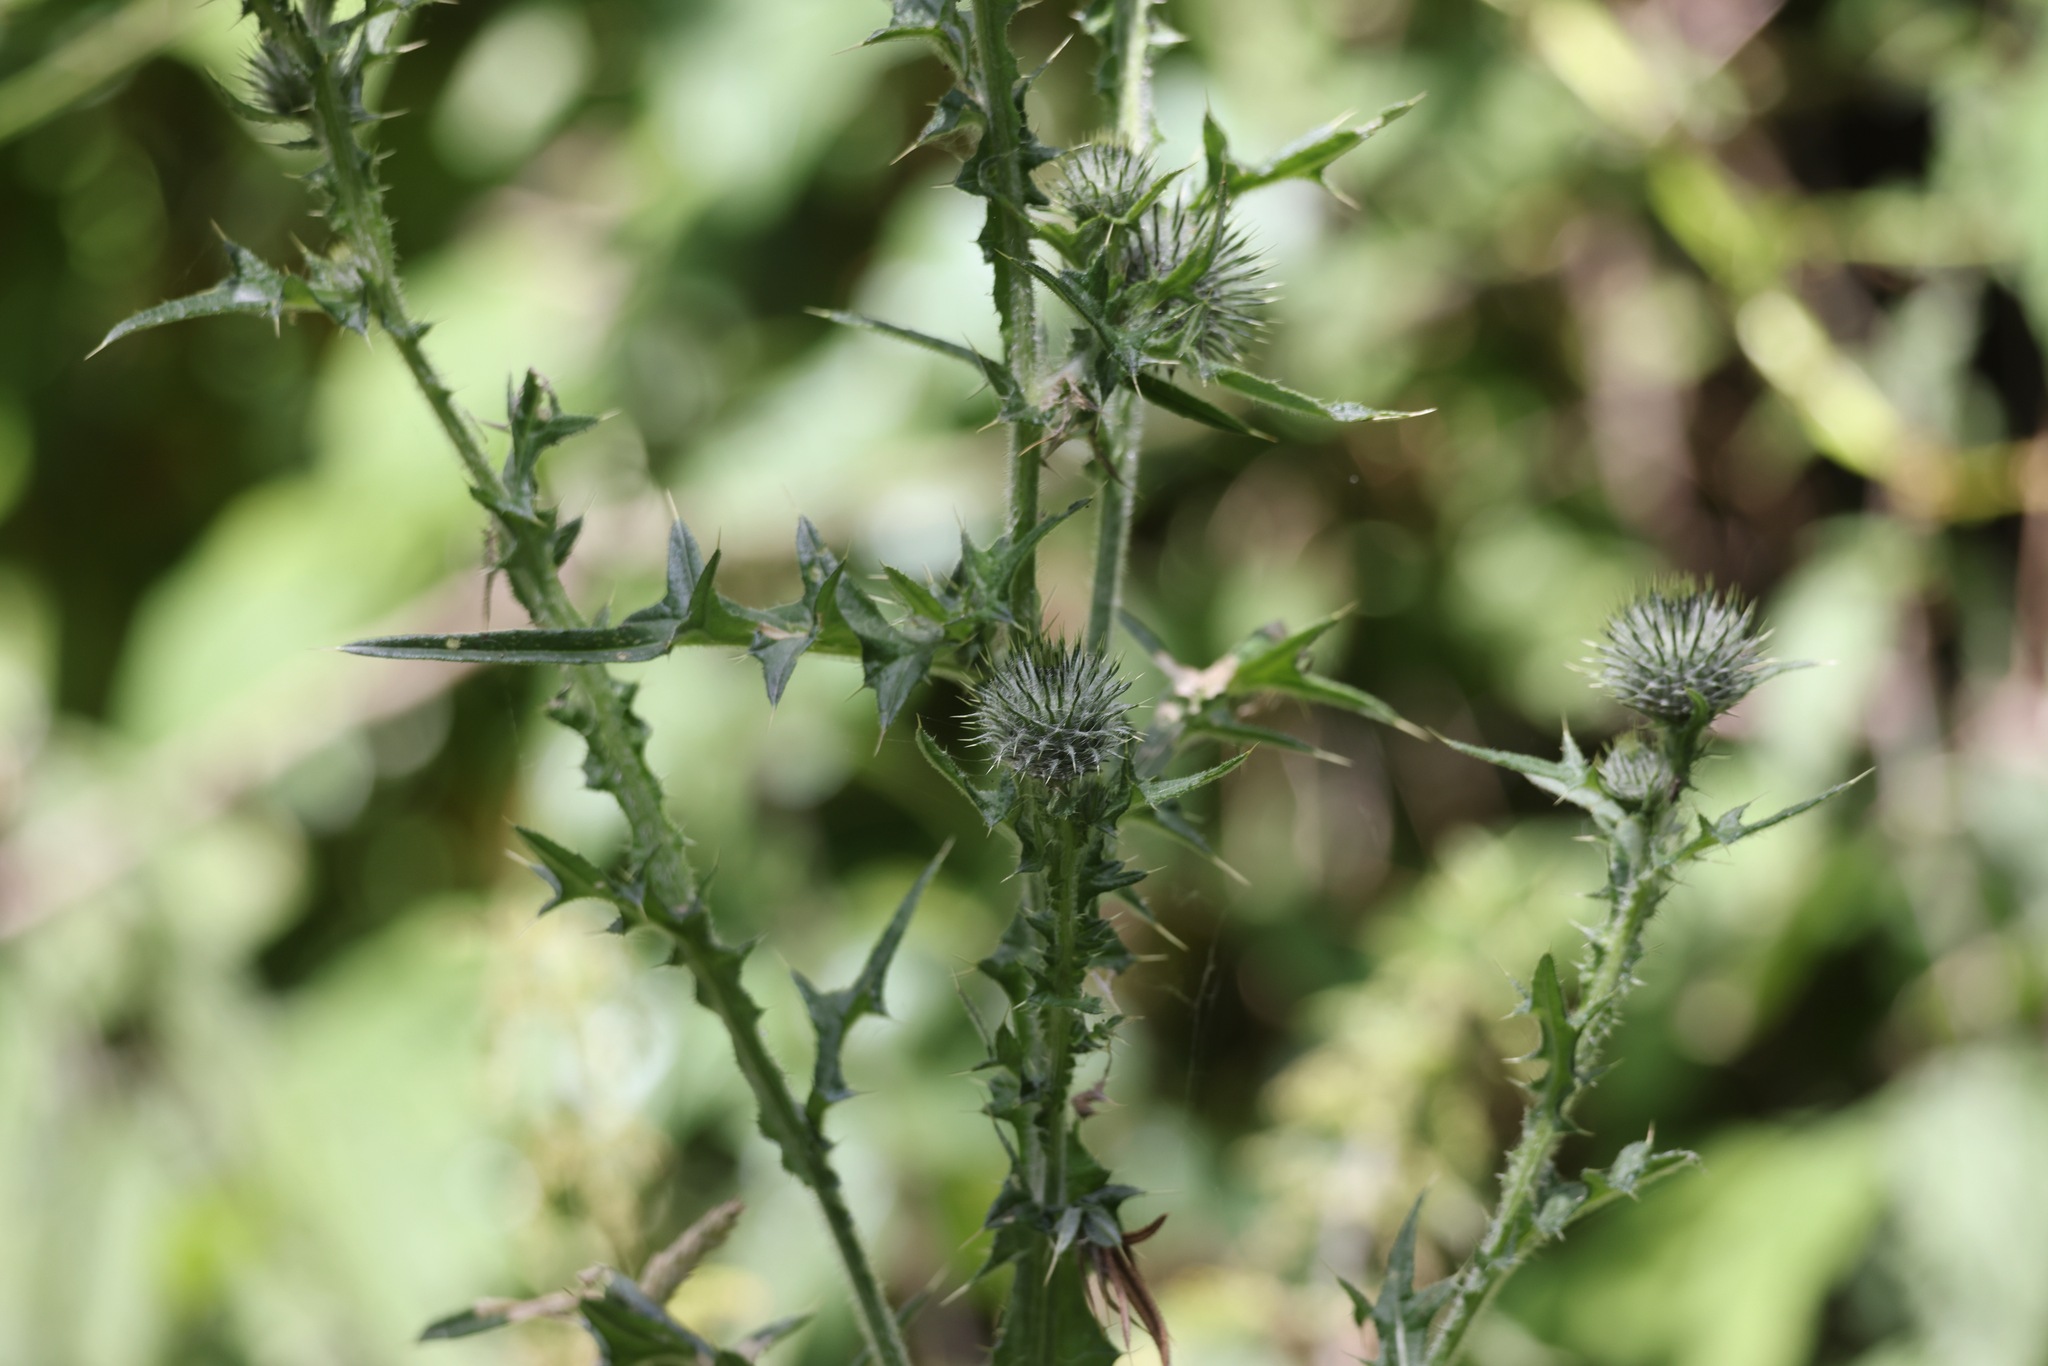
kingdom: Plantae
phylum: Tracheophyta
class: Magnoliopsida
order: Asterales
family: Asteraceae
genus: Cirsium
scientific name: Cirsium vulgare
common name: Bull thistle
